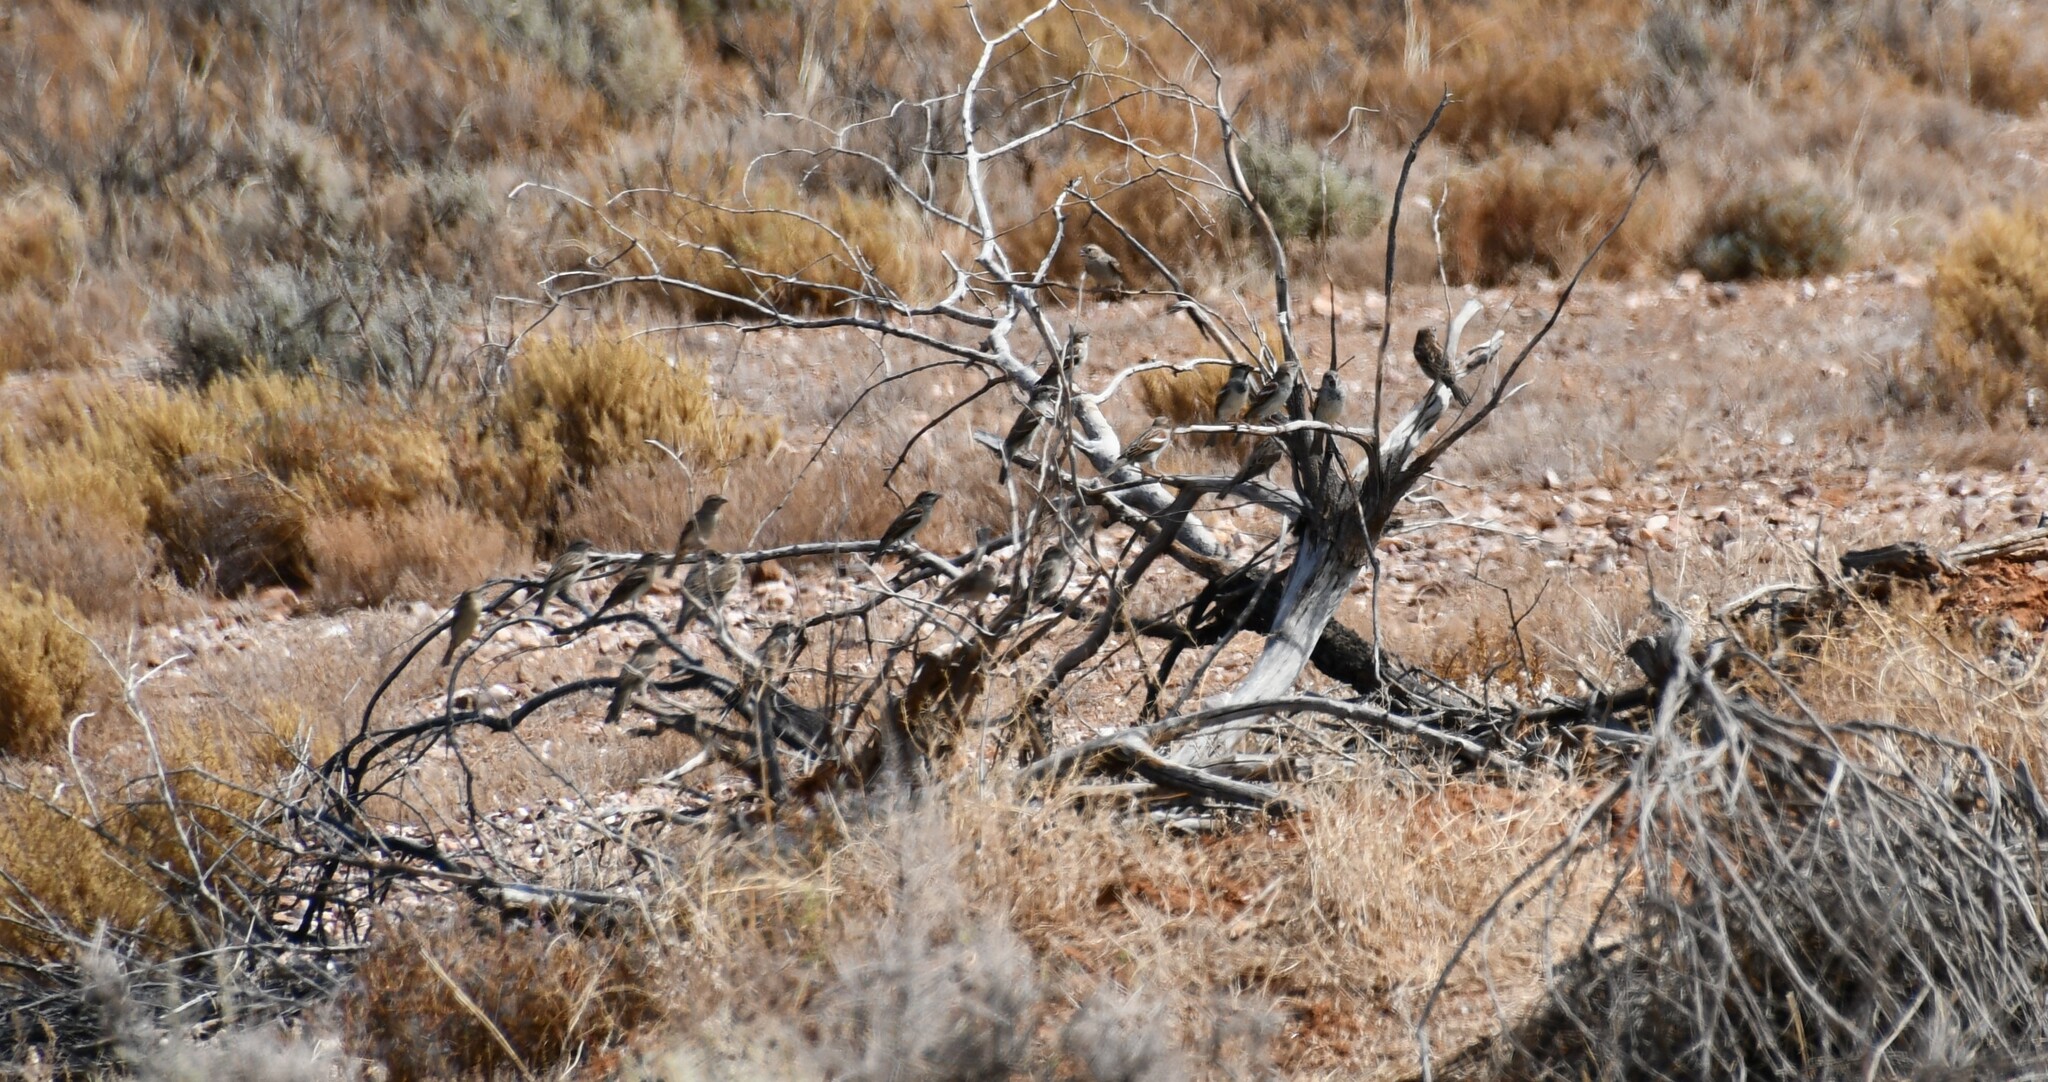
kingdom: Animalia
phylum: Chordata
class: Aves
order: Passeriformes
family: Passeridae
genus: Passer
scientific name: Passer domesticus
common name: House sparrow
